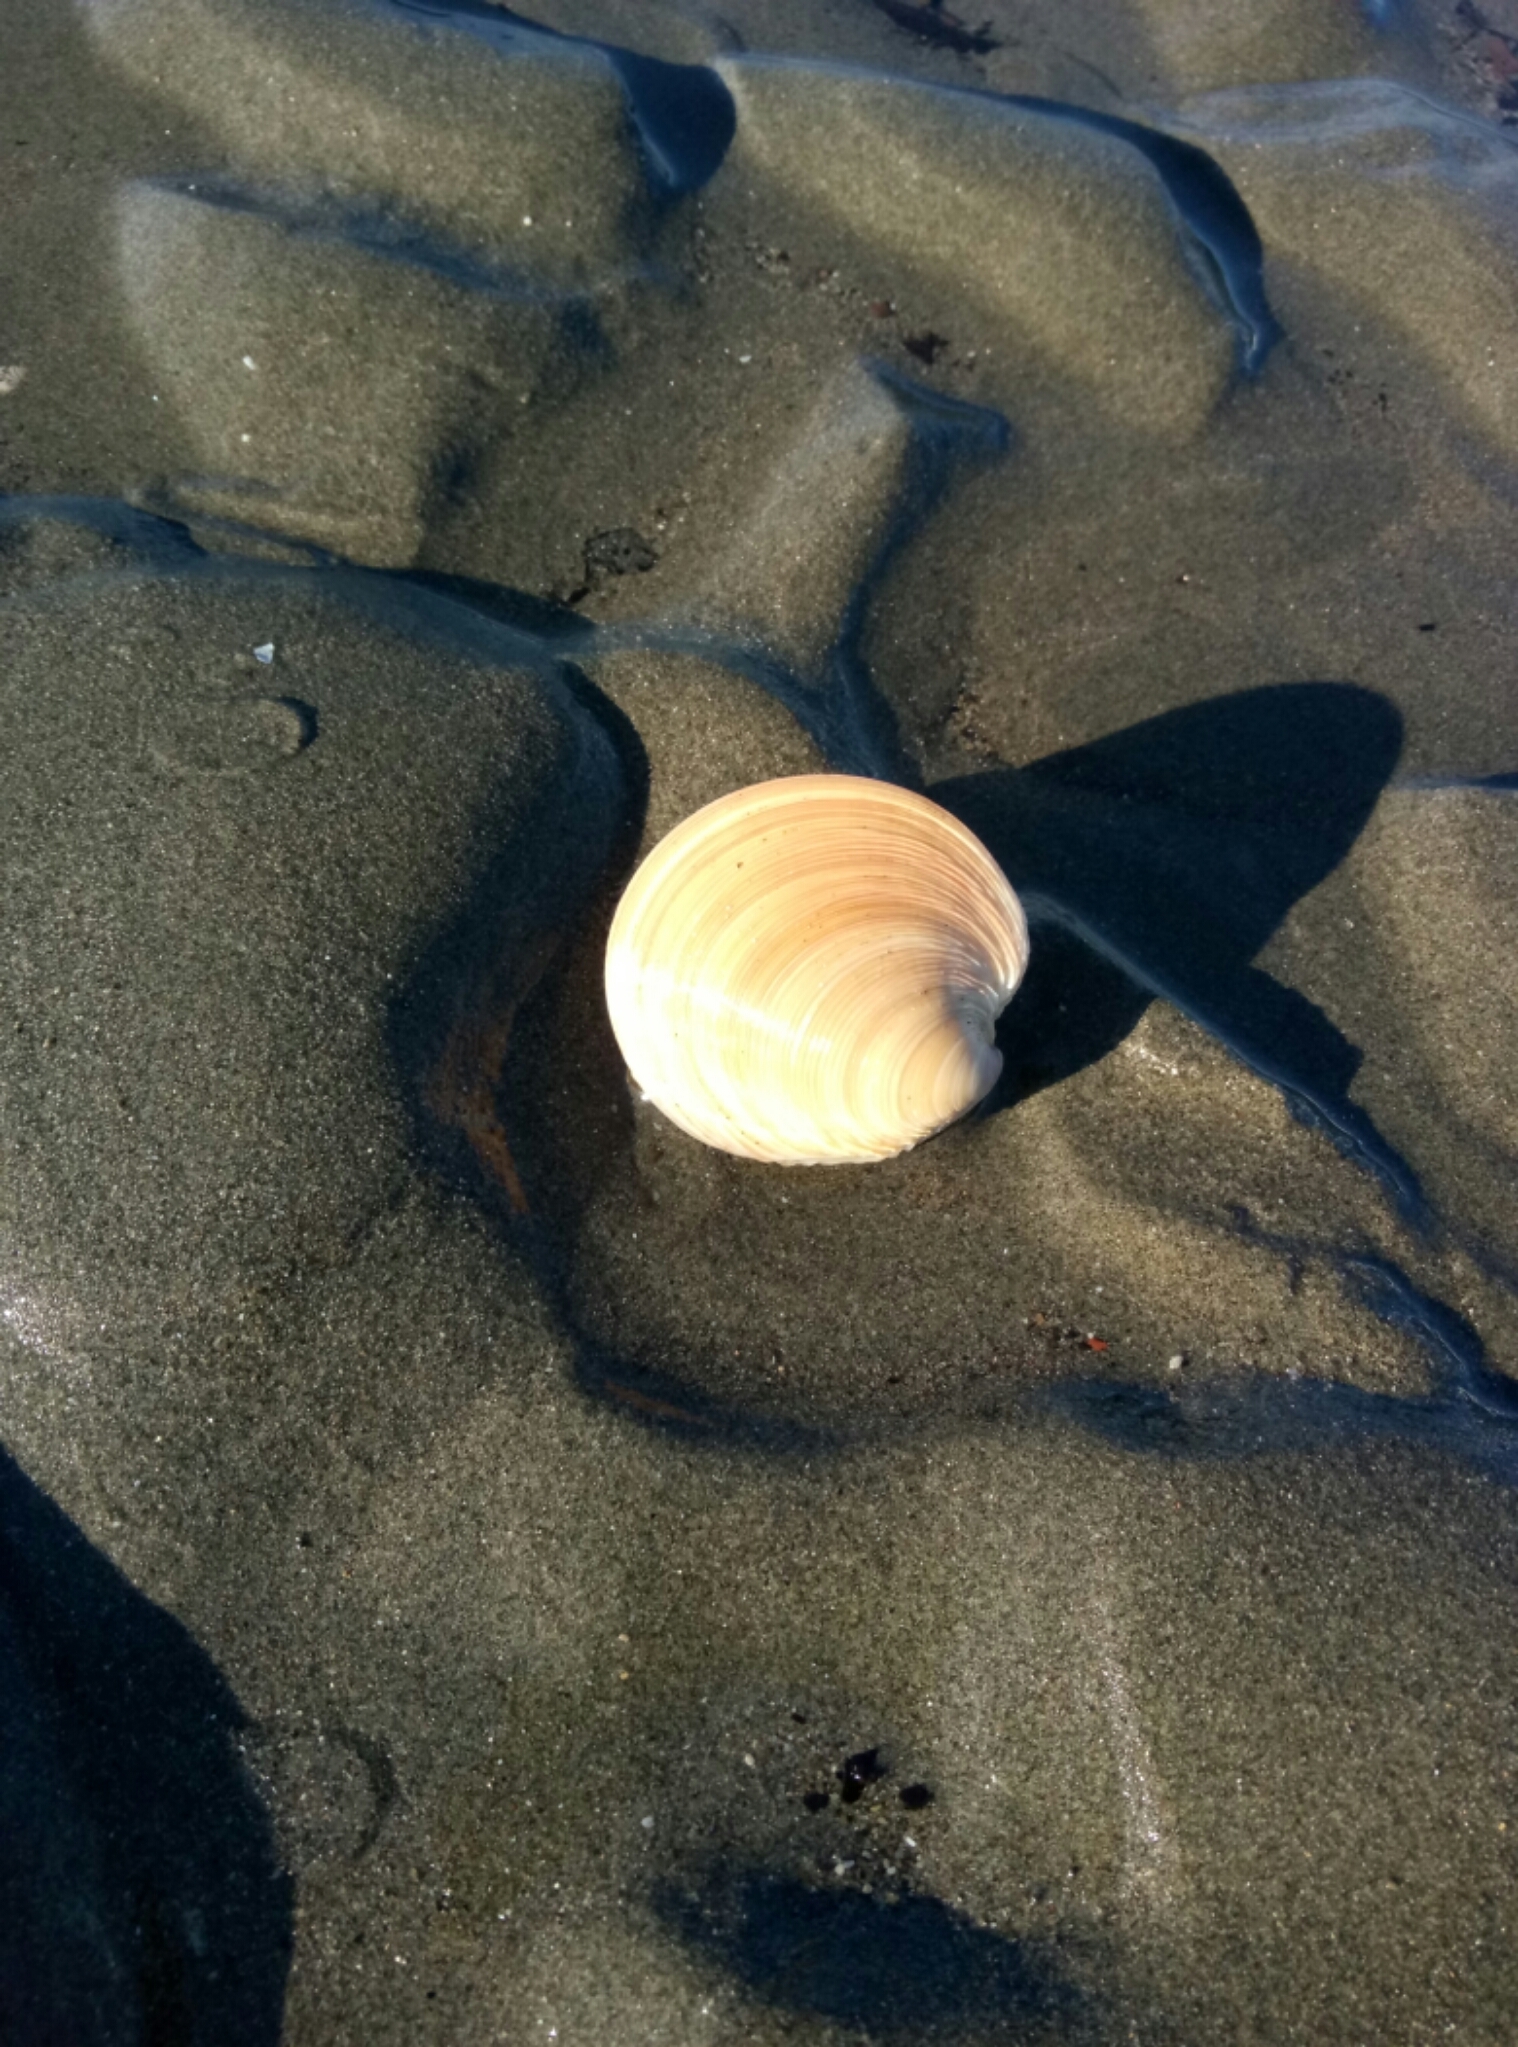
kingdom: Animalia
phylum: Mollusca
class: Bivalvia
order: Venerida
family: Veneridae
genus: Dosinia
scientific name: Dosinia anus
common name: Old-woman dosinia
